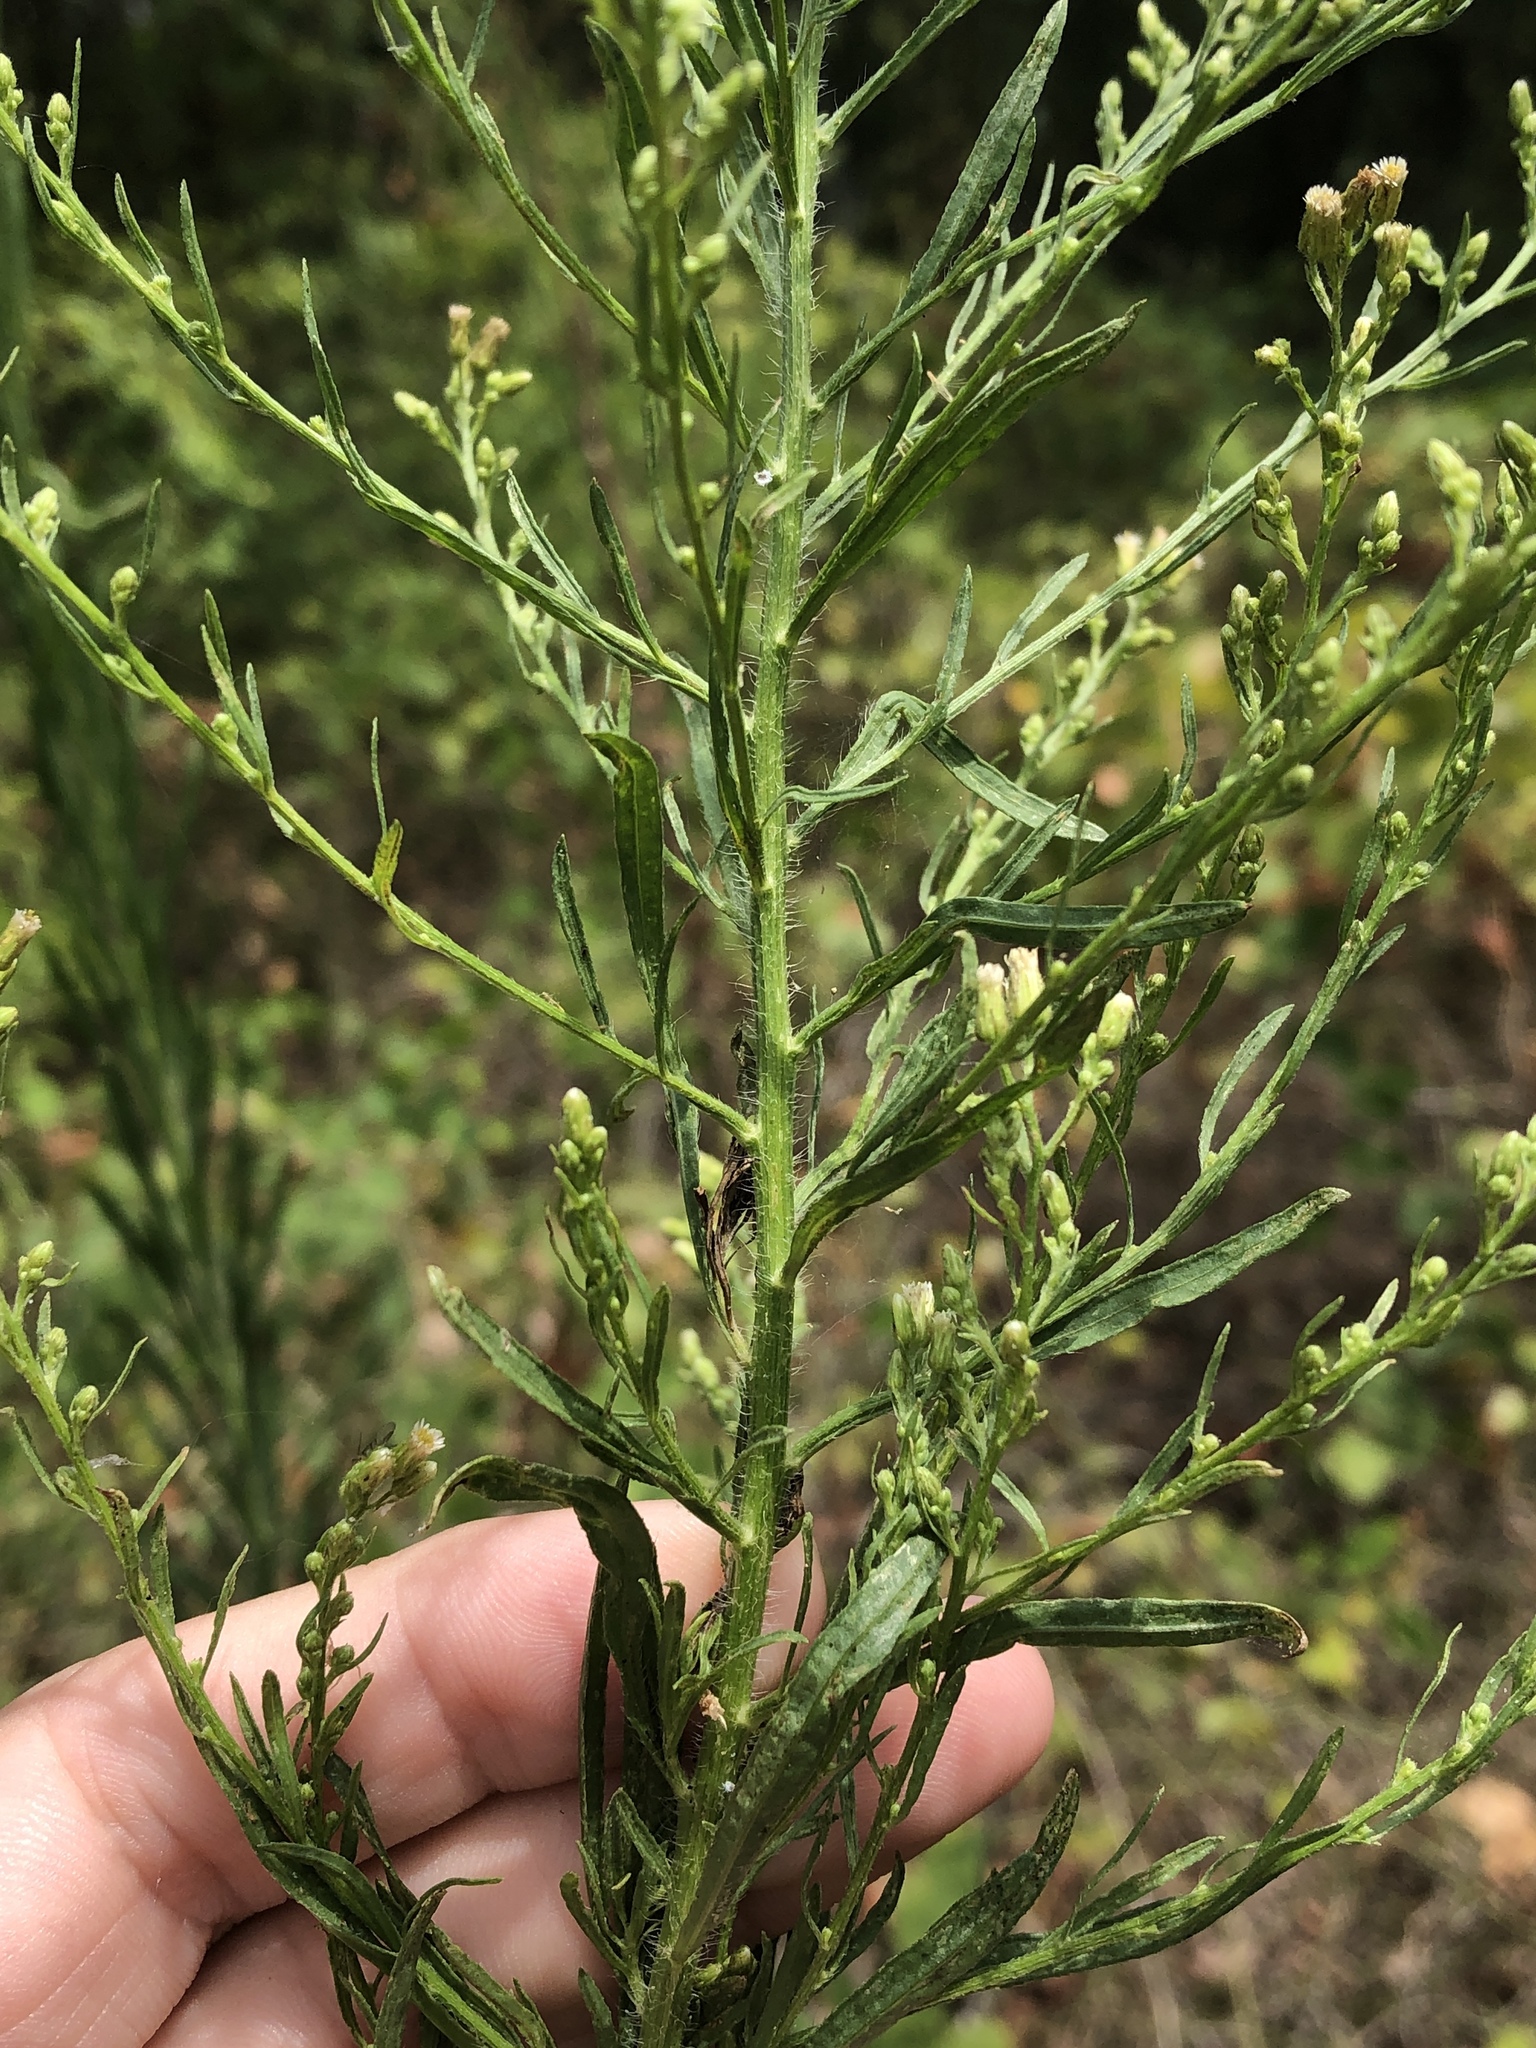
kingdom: Plantae
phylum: Tracheophyta
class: Magnoliopsida
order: Asterales
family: Asteraceae
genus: Erigeron
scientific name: Erigeron canadensis
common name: Canadian fleabane
